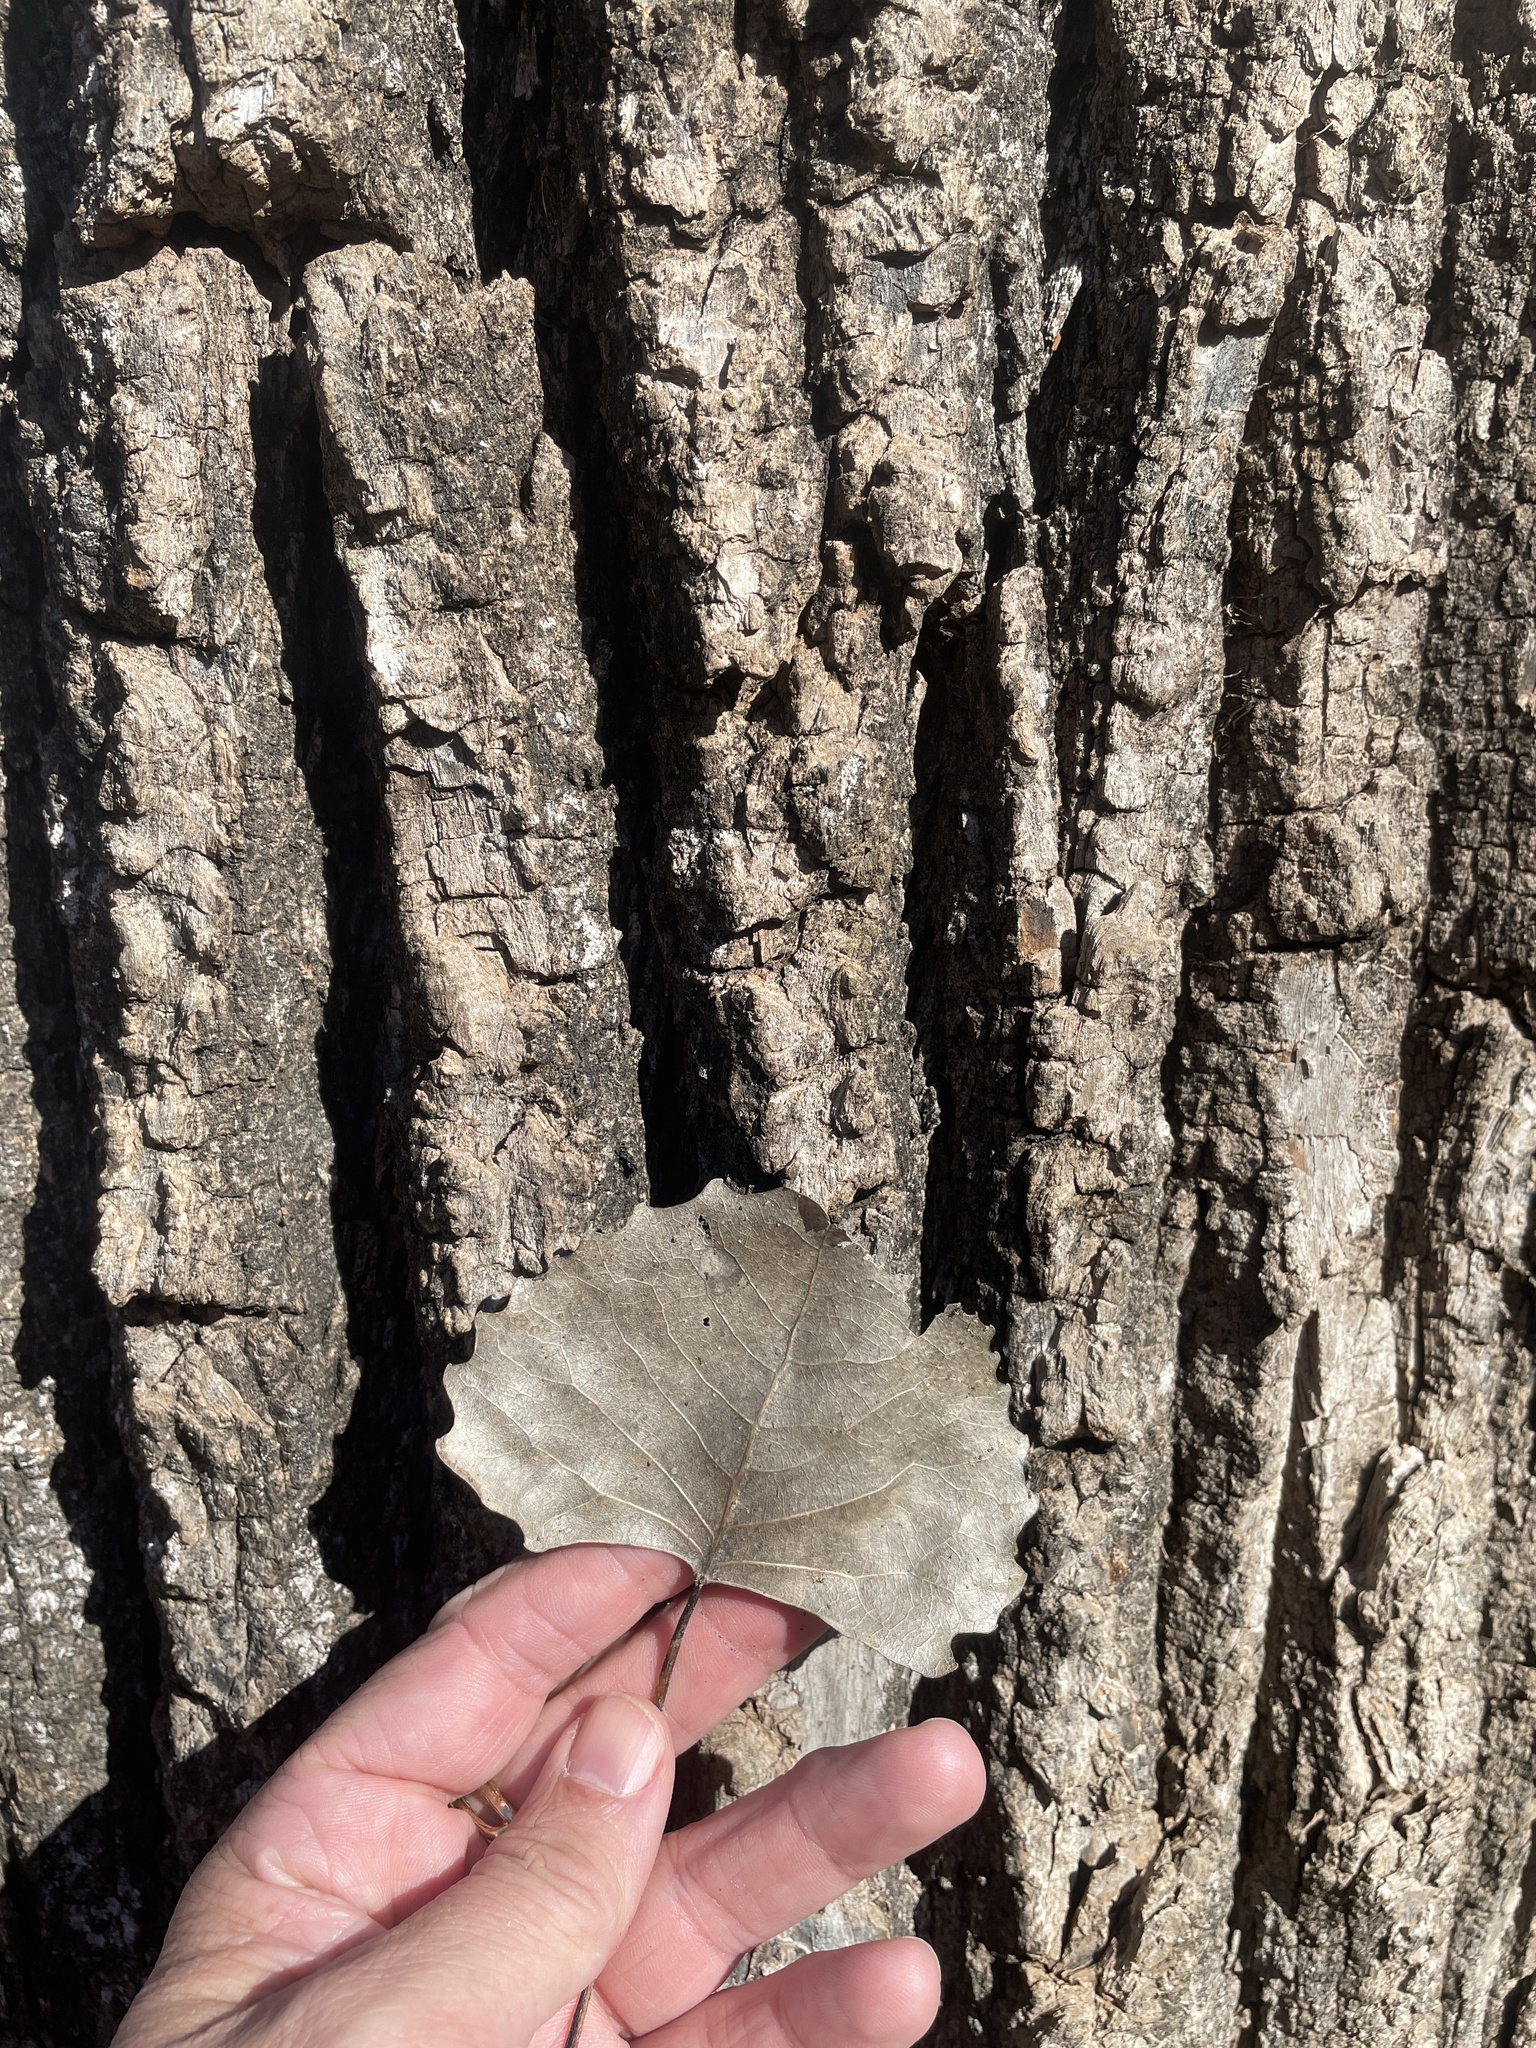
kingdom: Plantae
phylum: Tracheophyta
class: Magnoliopsida
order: Malpighiales
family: Salicaceae
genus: Populus
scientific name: Populus deltoides
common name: Eastern cottonwood
